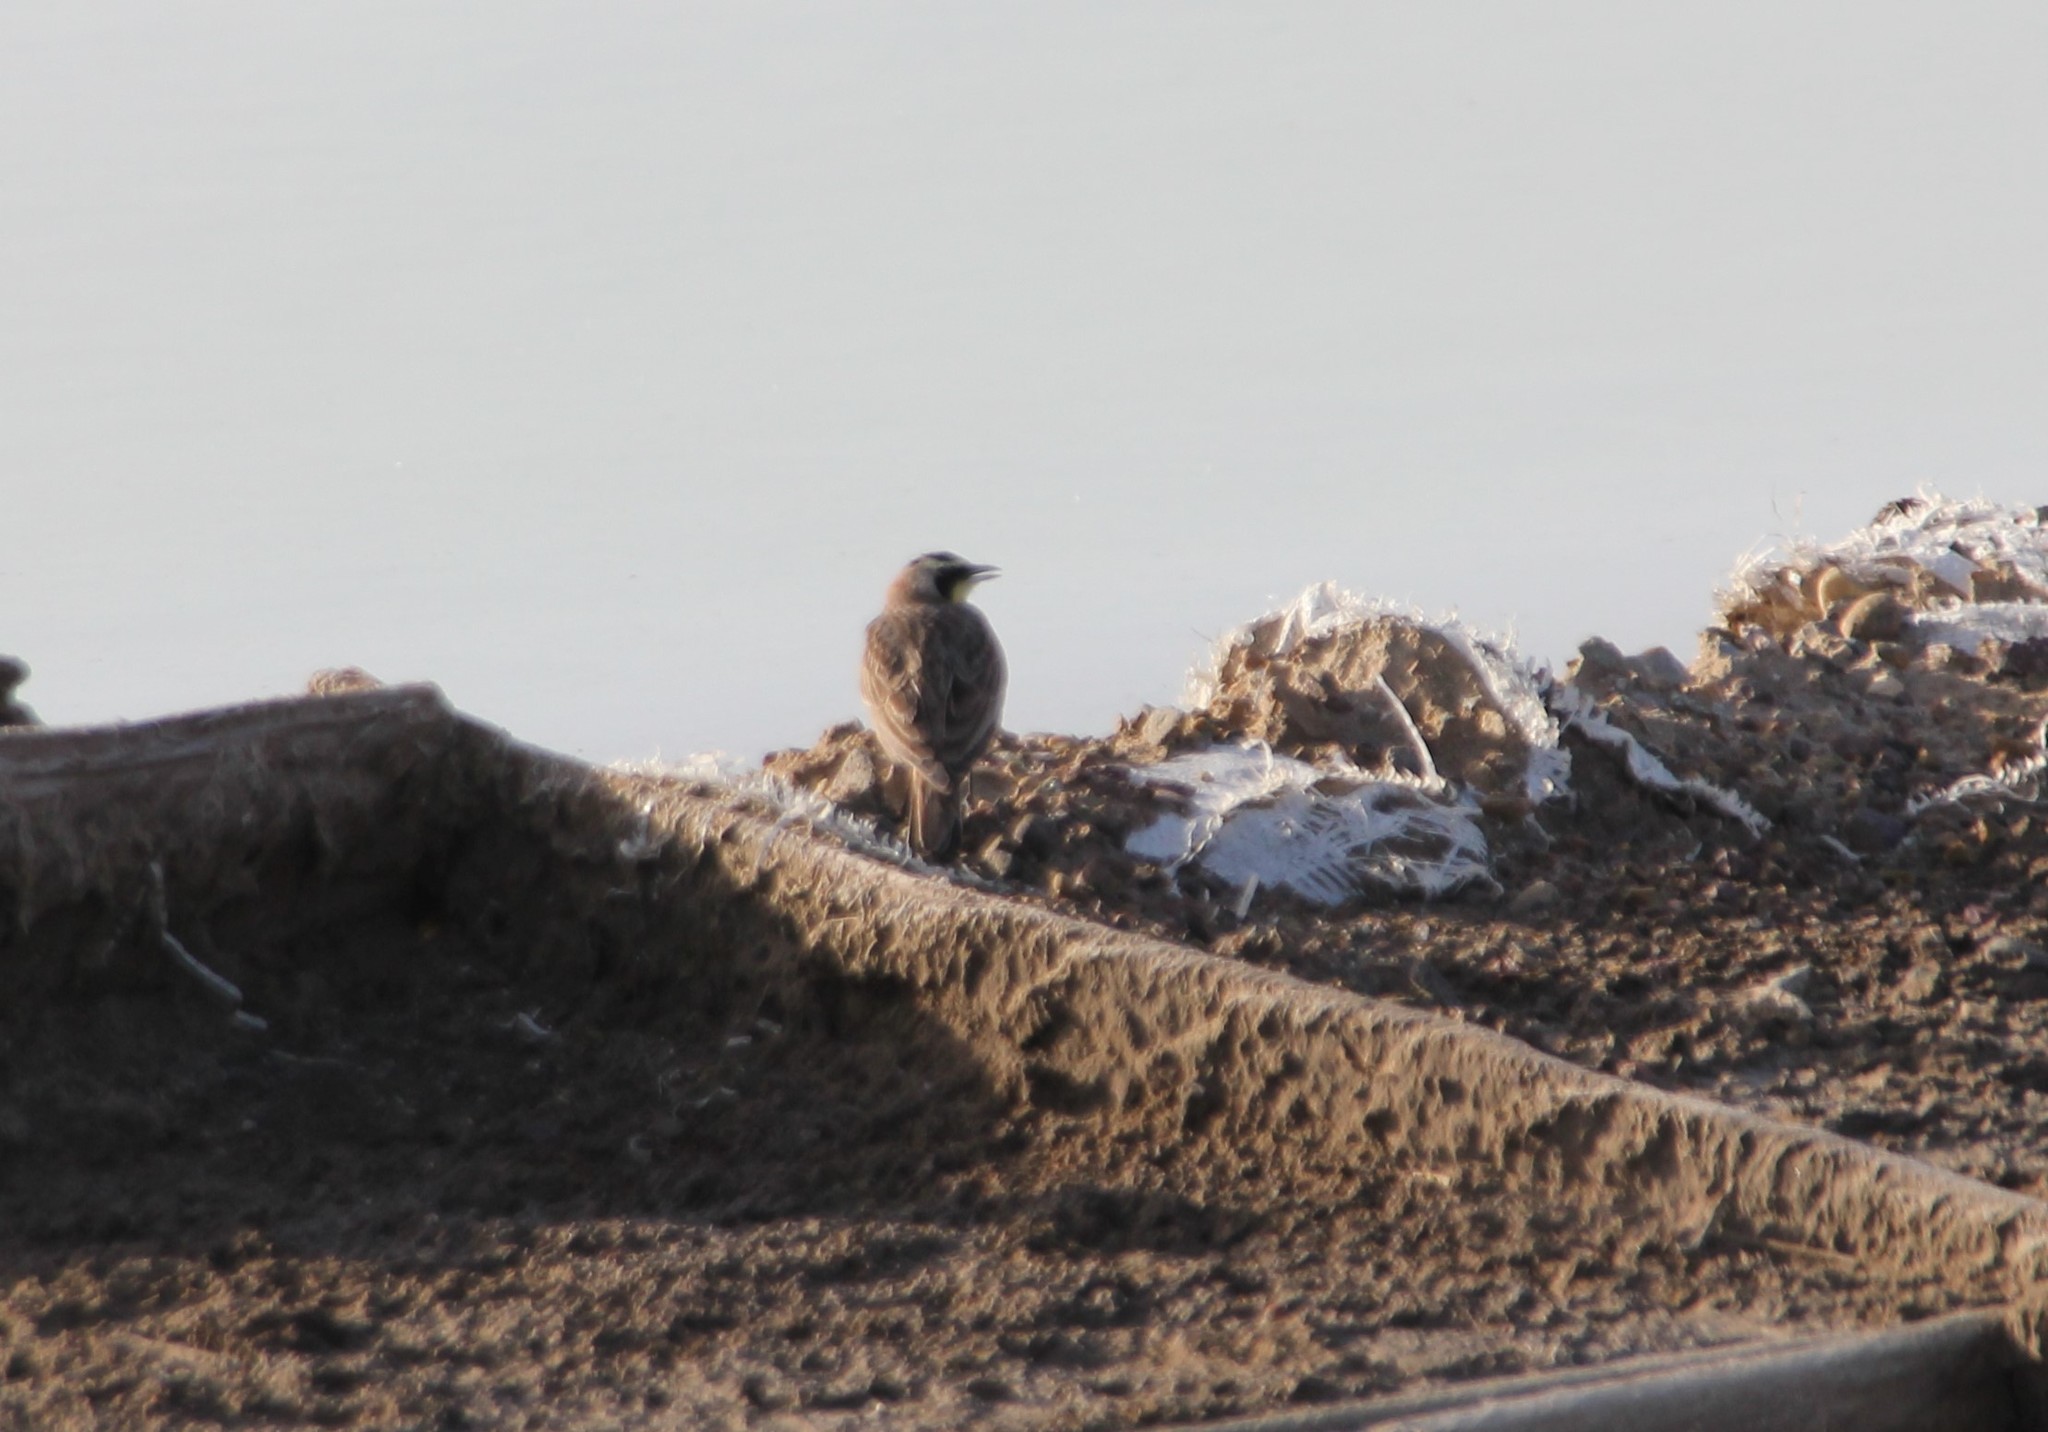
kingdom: Animalia
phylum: Chordata
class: Aves
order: Passeriformes
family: Alaudidae
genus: Eremophila
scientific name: Eremophila alpestris
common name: Horned lark
